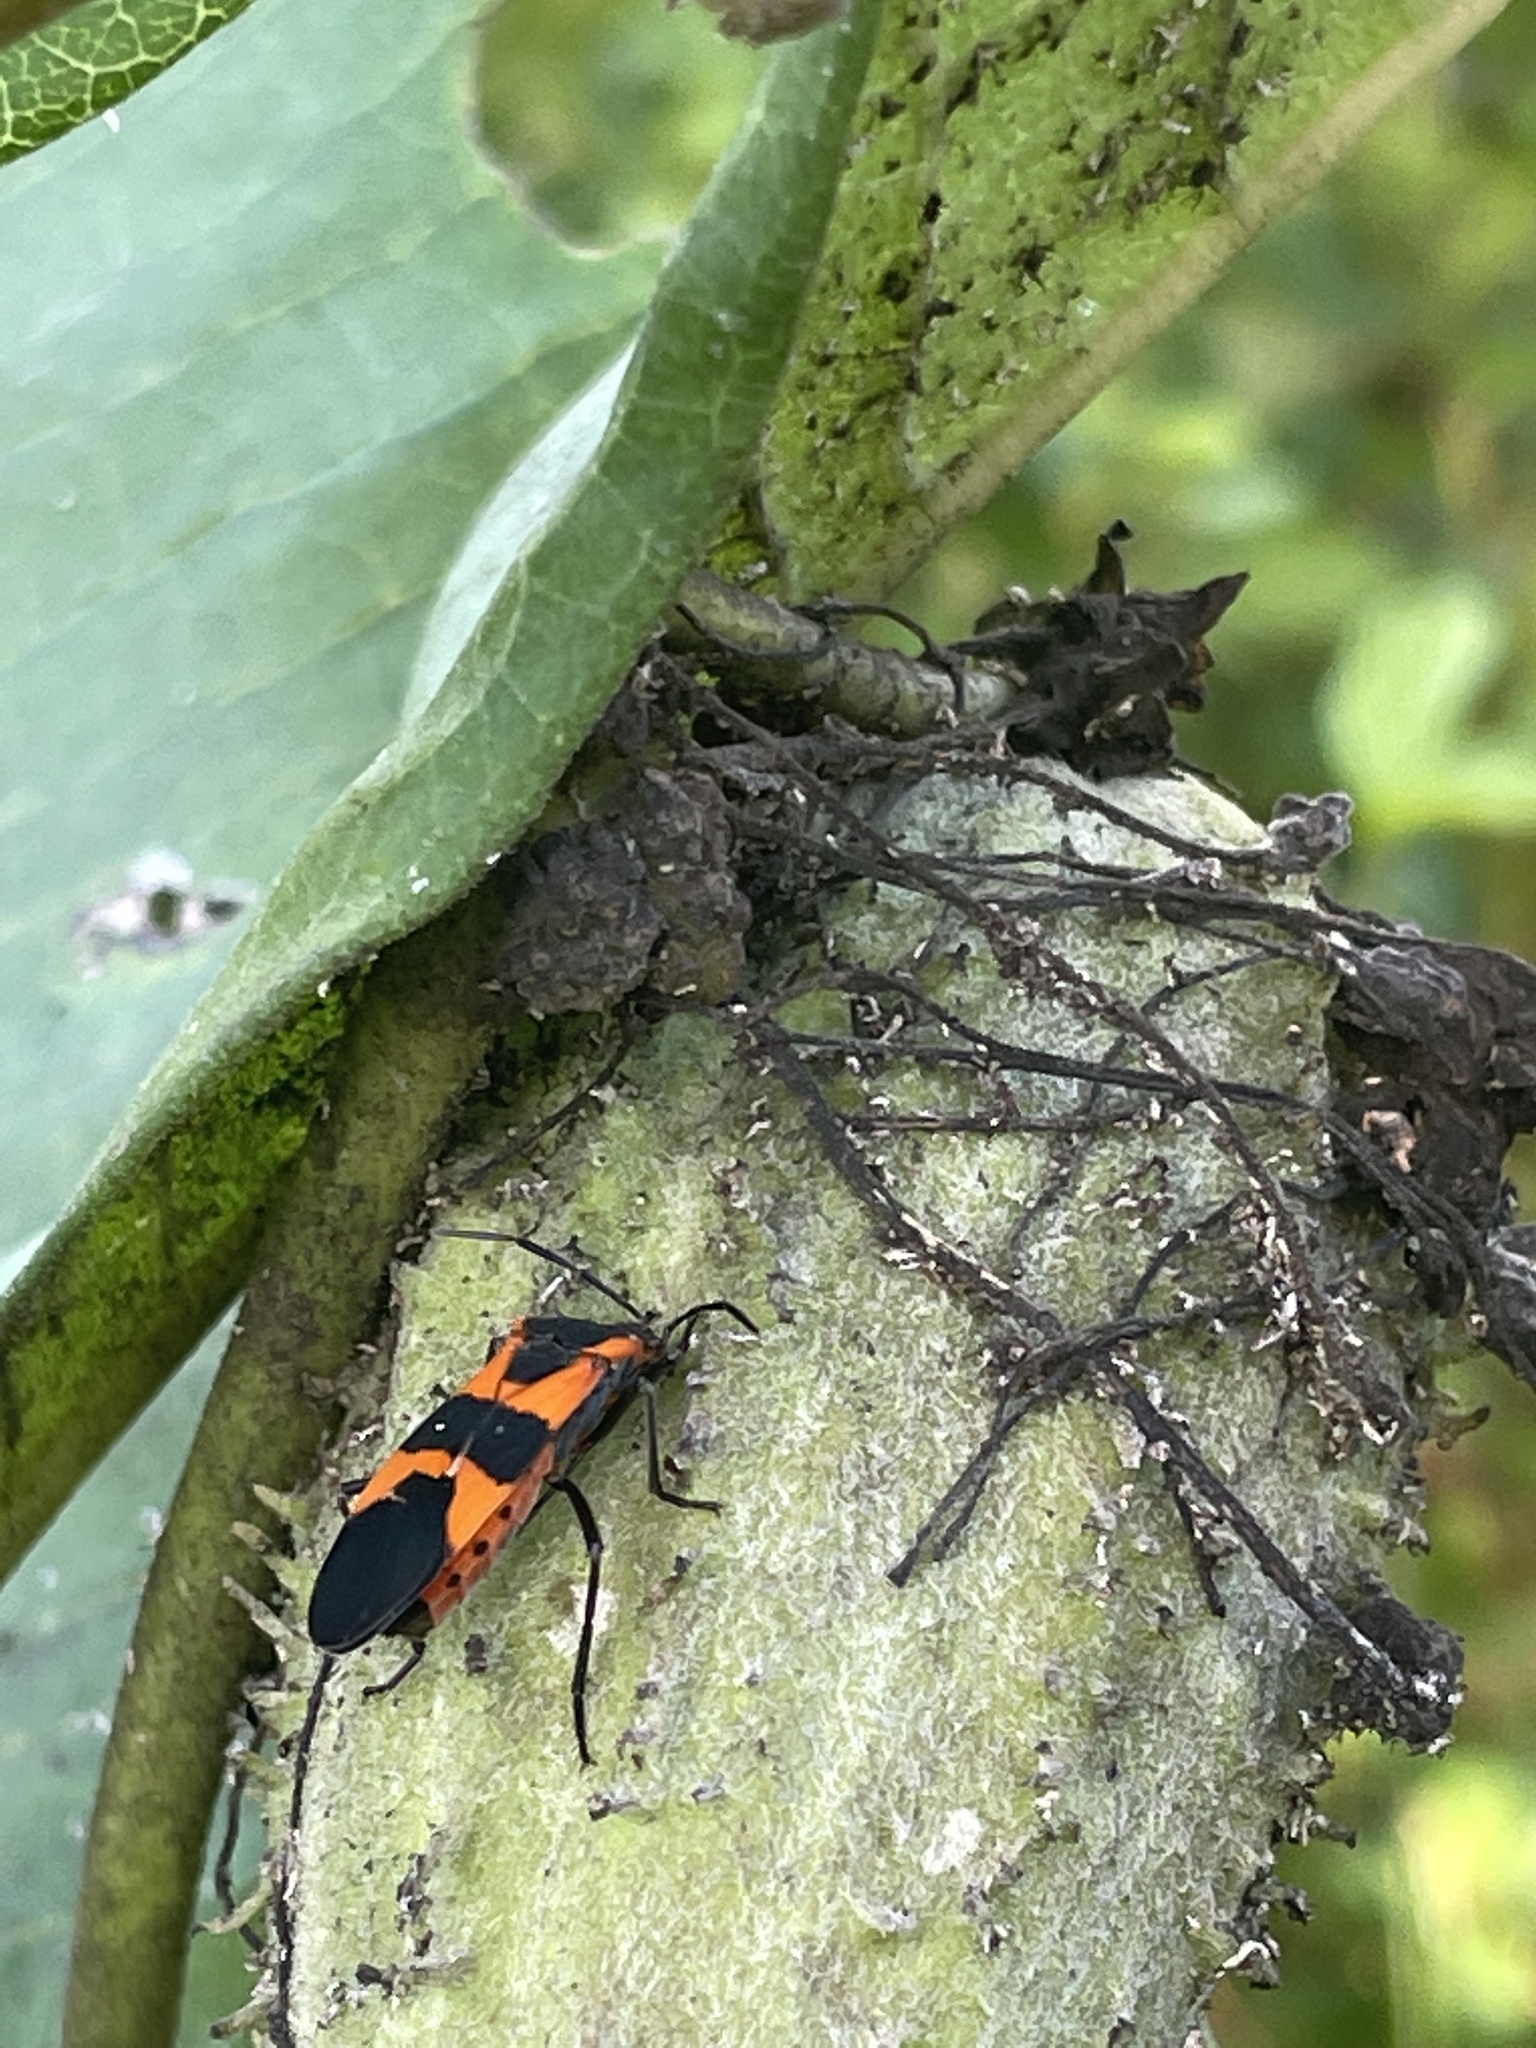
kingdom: Animalia
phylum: Arthropoda
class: Insecta
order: Hemiptera
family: Lygaeidae
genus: Oncopeltus
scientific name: Oncopeltus fasciatus
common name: Large milkweed bug
